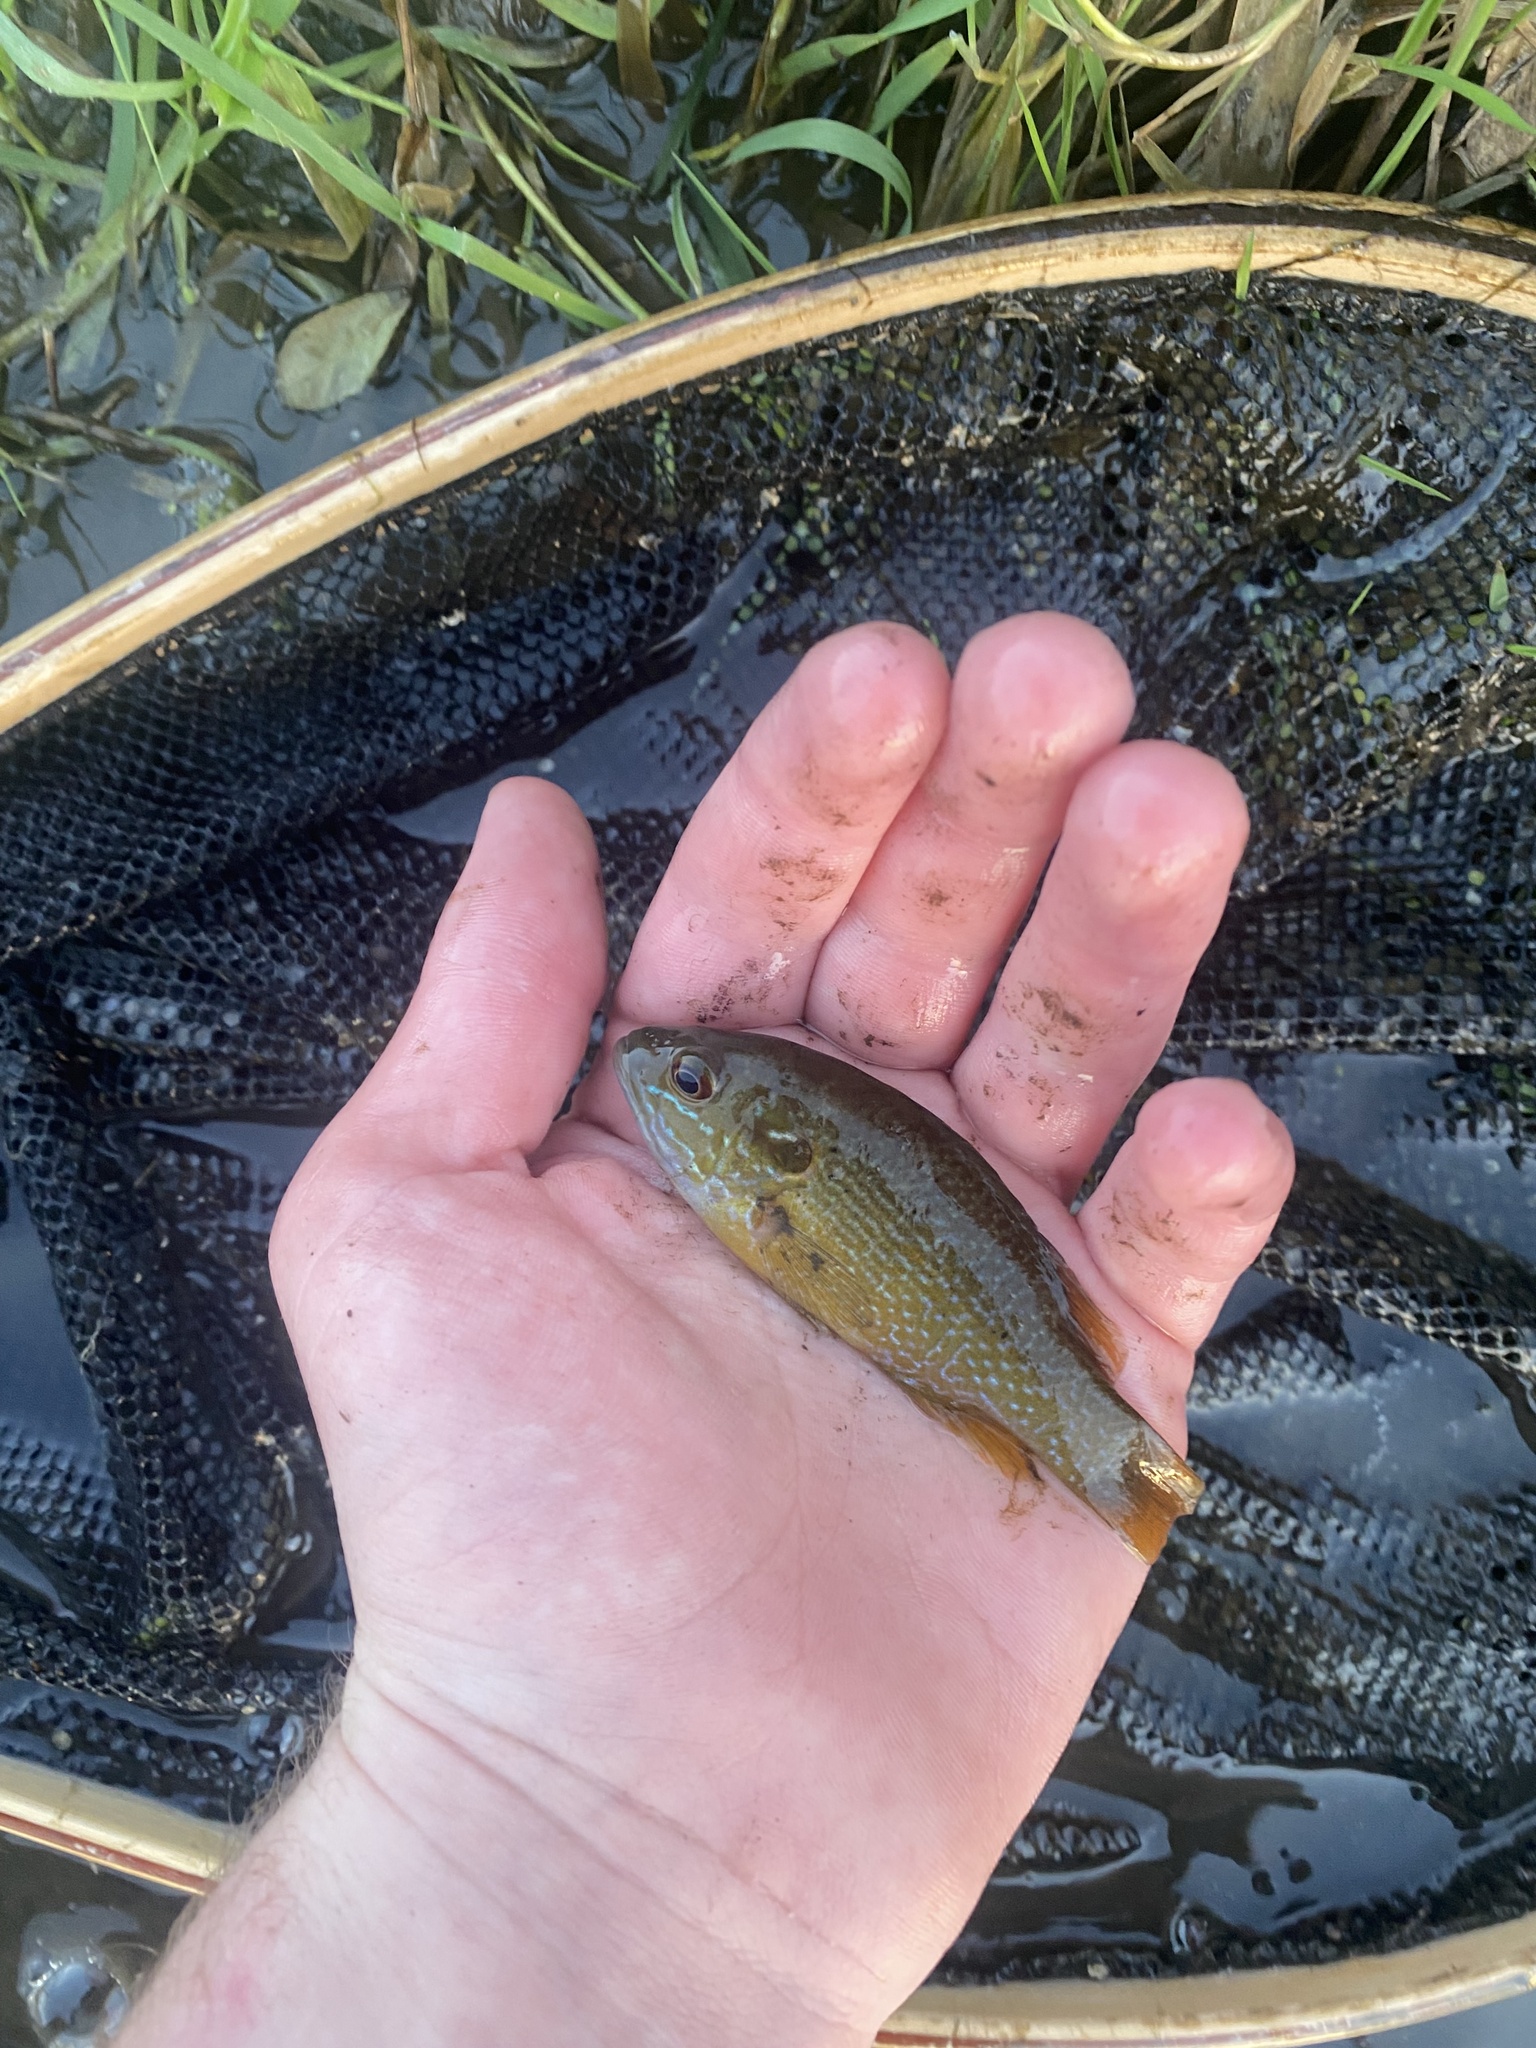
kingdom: Animalia
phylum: Chordata
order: Perciformes
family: Centrarchidae
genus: Lepomis
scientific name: Lepomis cyanellus
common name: Green sunfish
